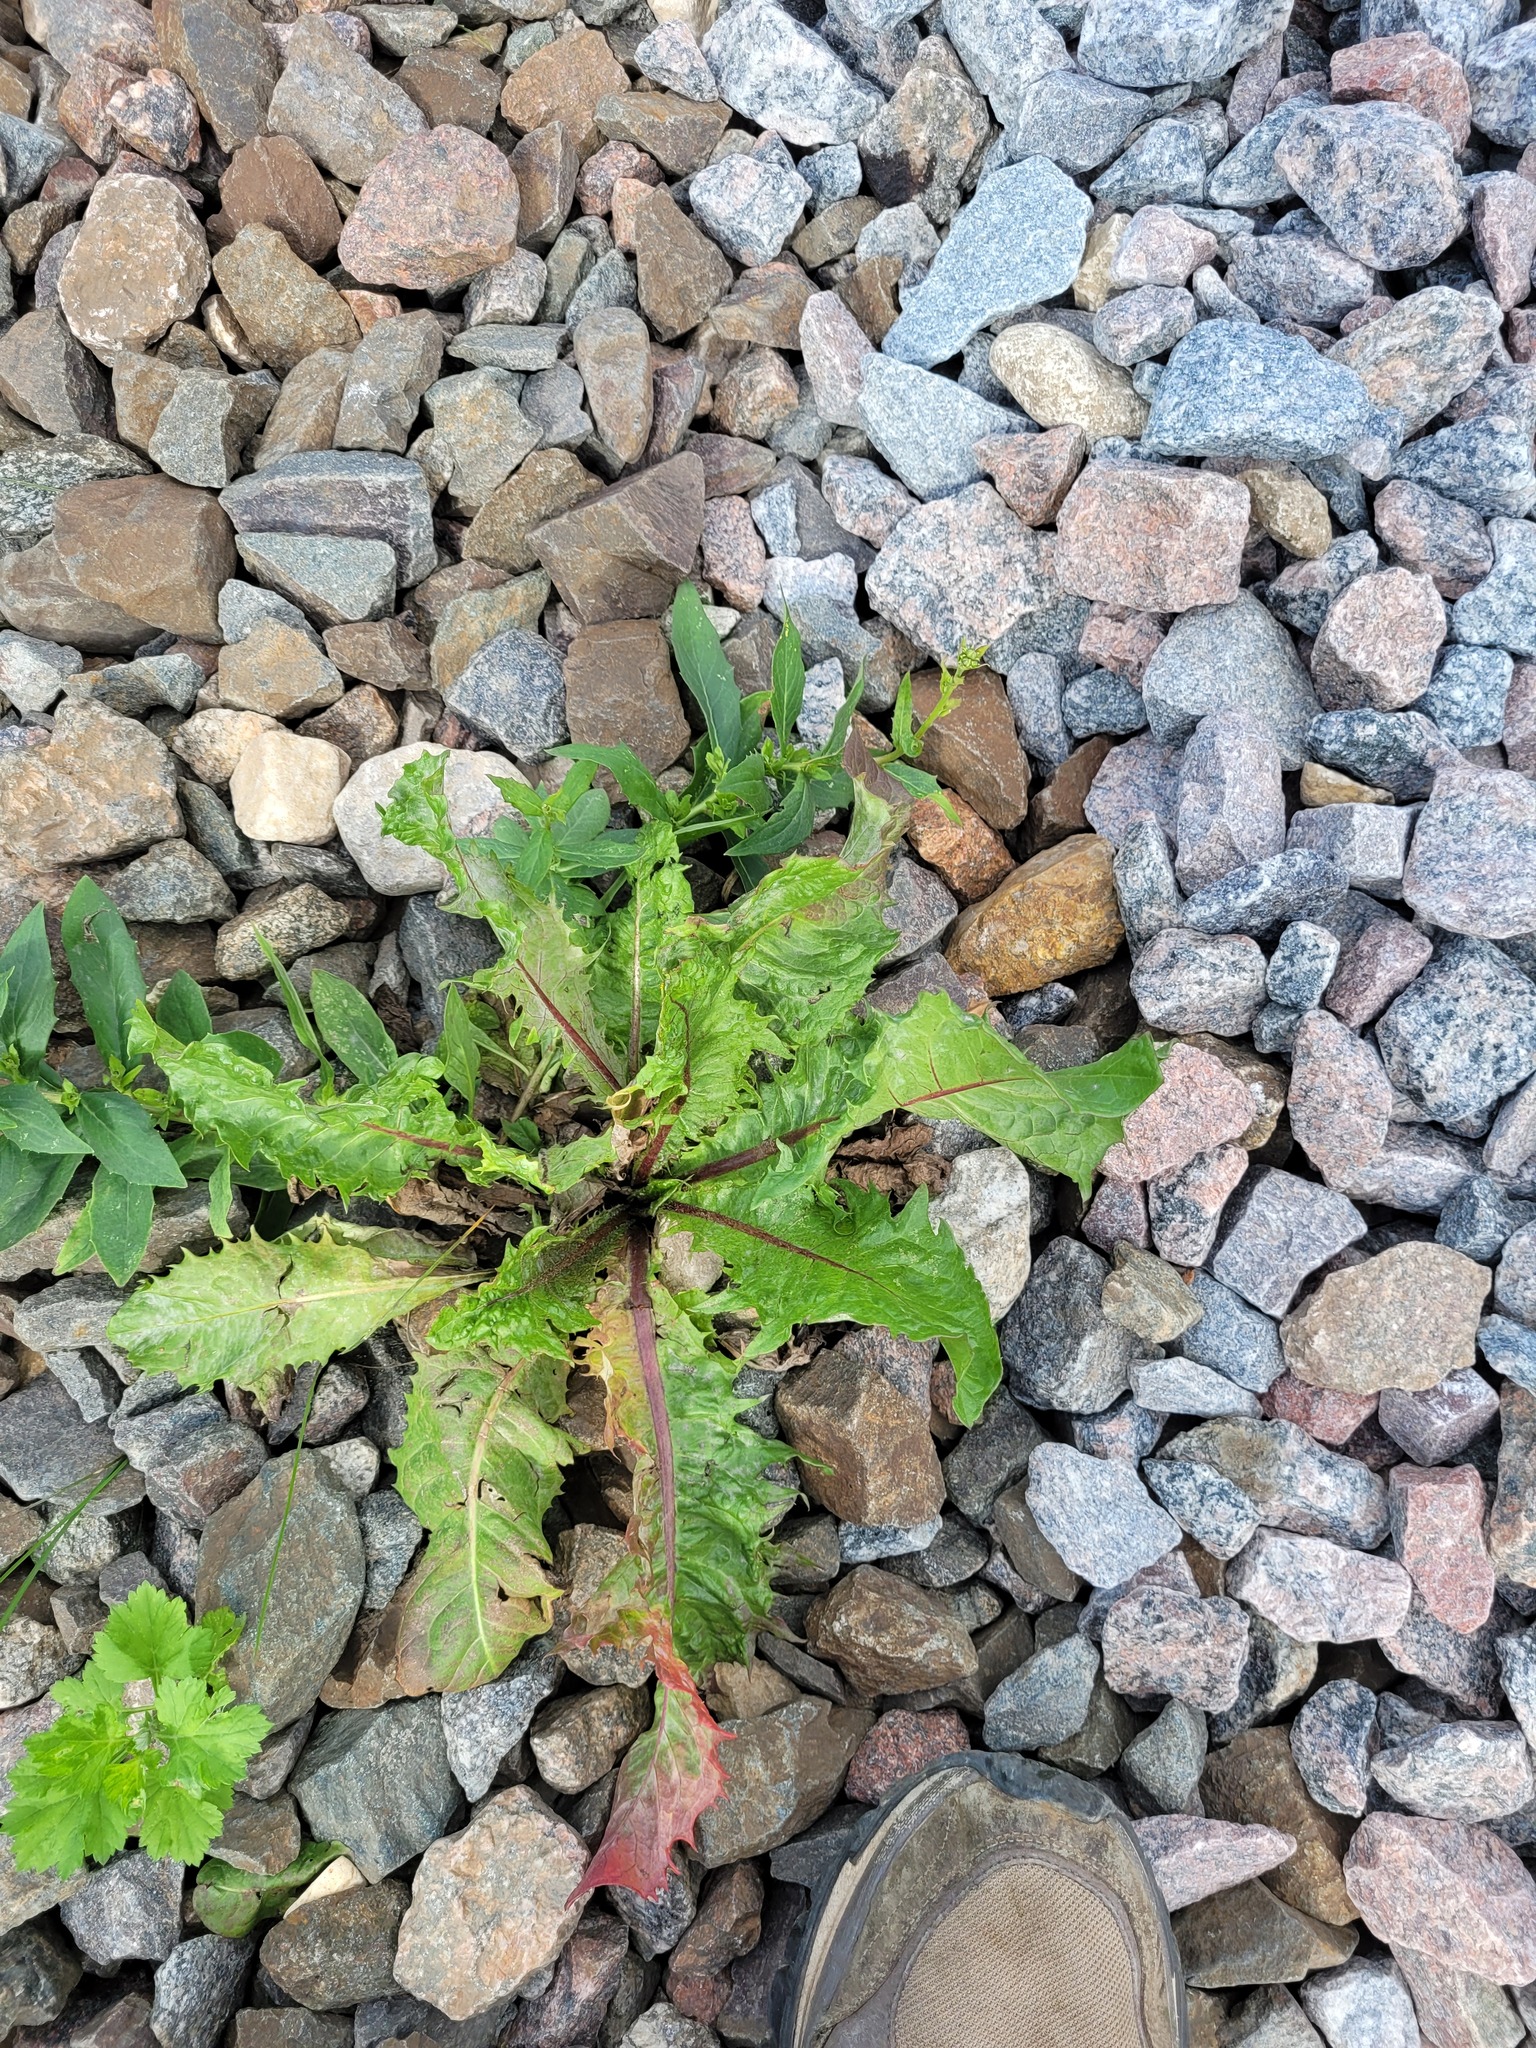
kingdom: Plantae
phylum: Tracheophyta
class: Magnoliopsida
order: Asterales
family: Asteraceae
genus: Taraxacum
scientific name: Taraxacum officinale
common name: Common dandelion
